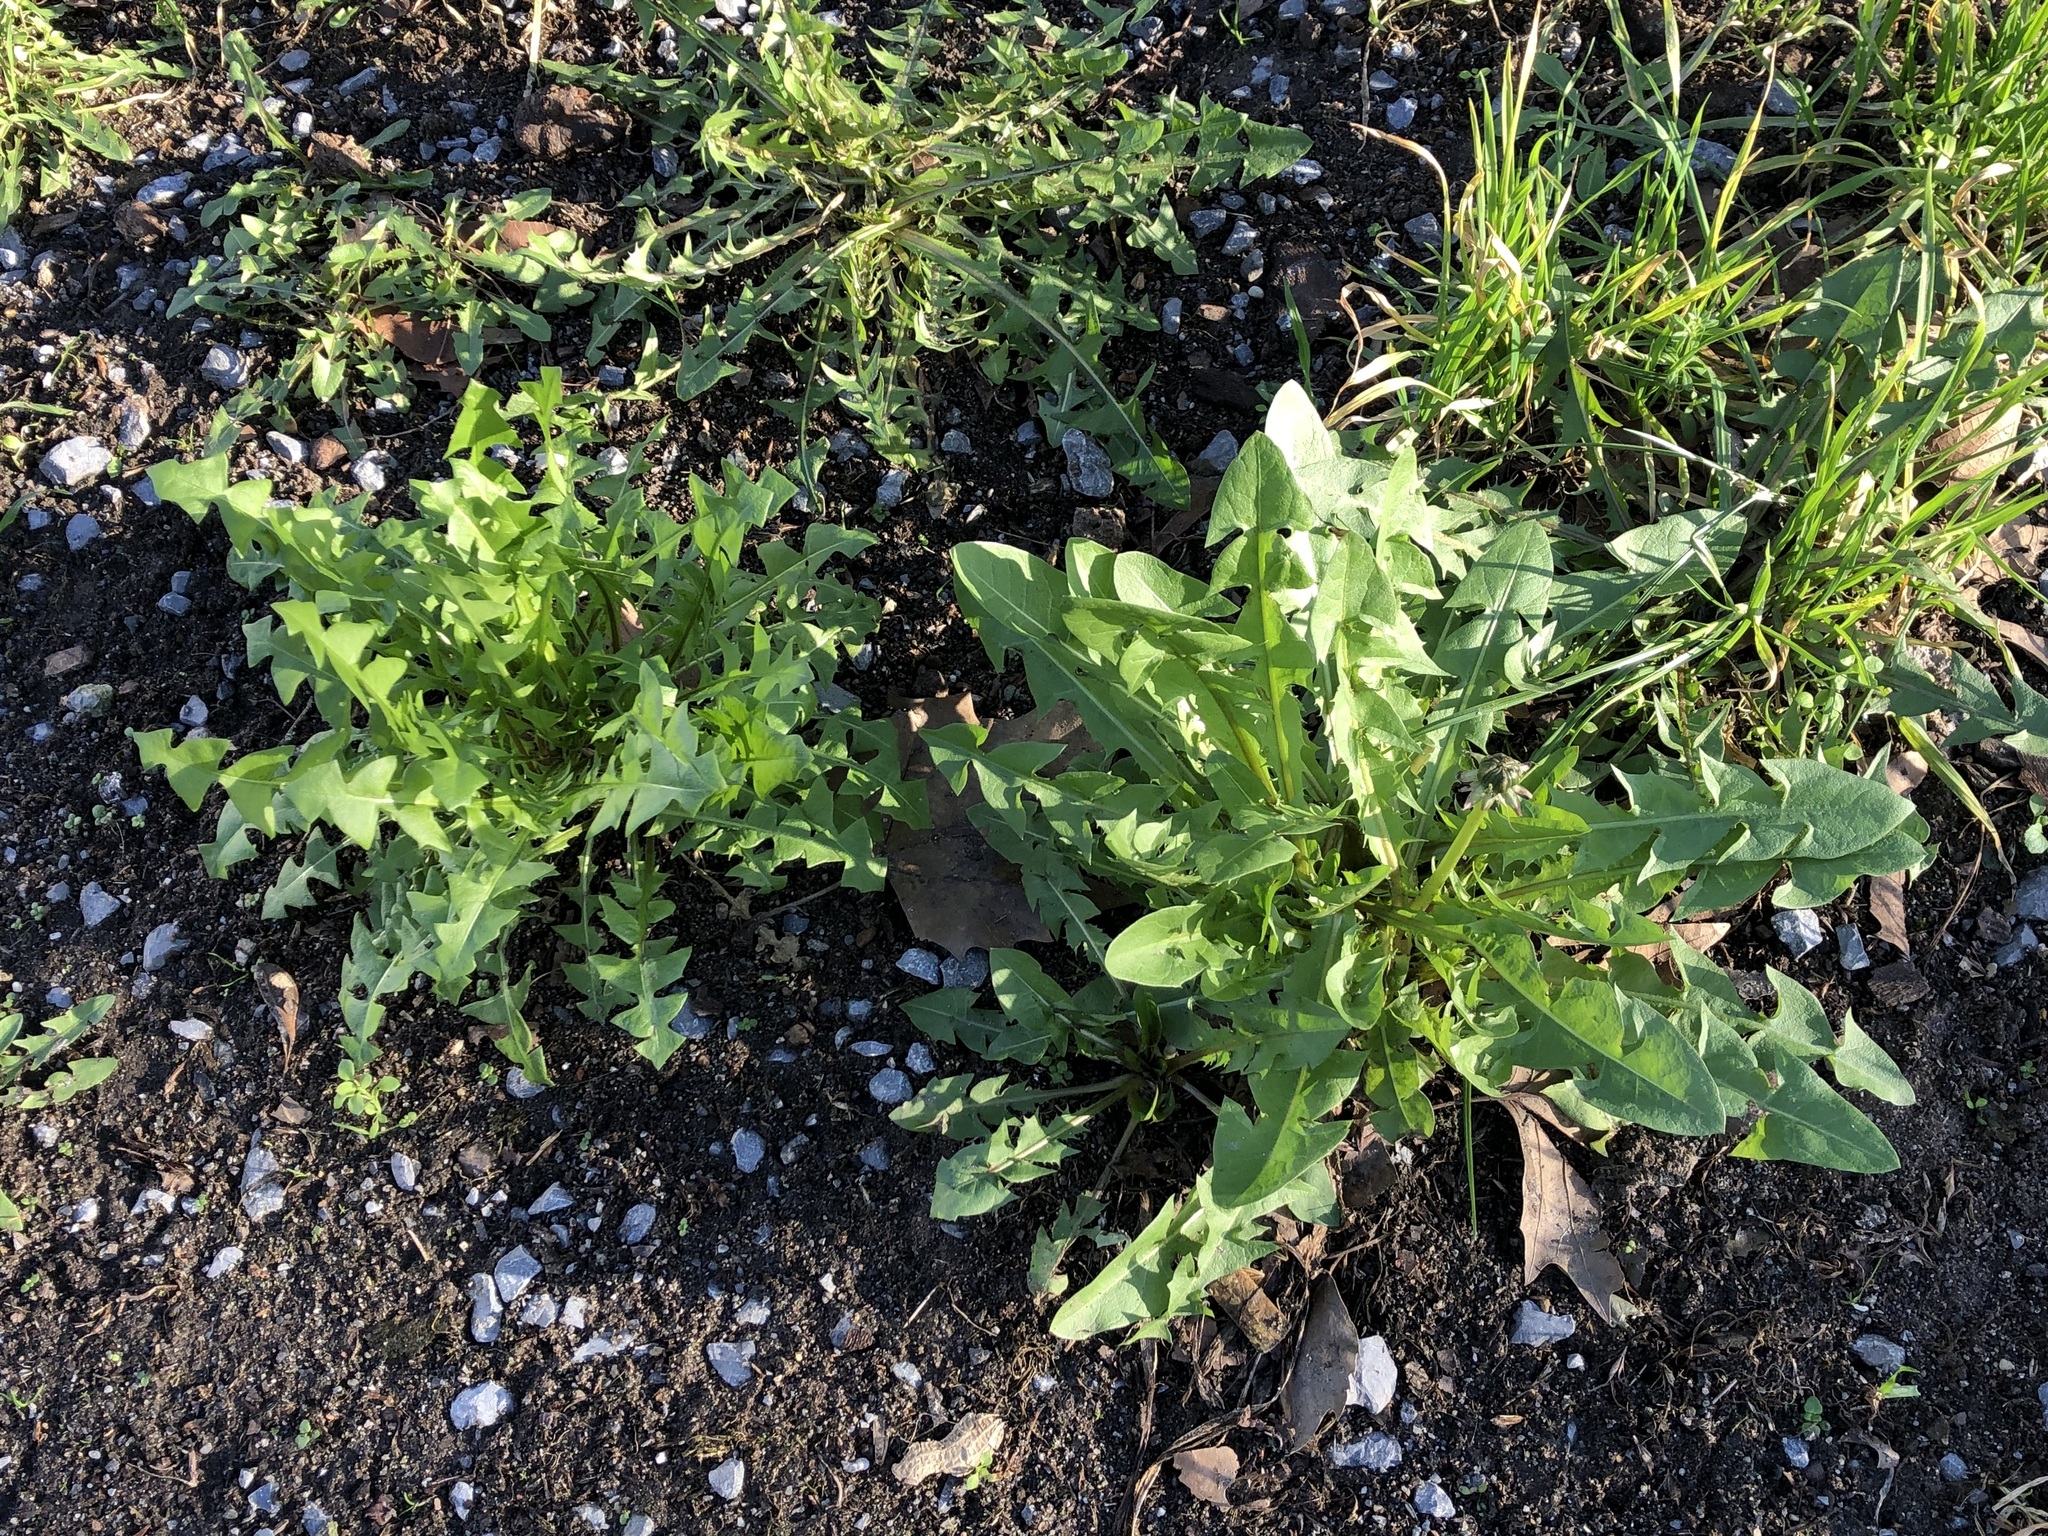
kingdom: Plantae
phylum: Tracheophyta
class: Magnoliopsida
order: Asterales
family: Asteraceae
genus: Taraxacum
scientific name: Taraxacum officinale
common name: Common dandelion
